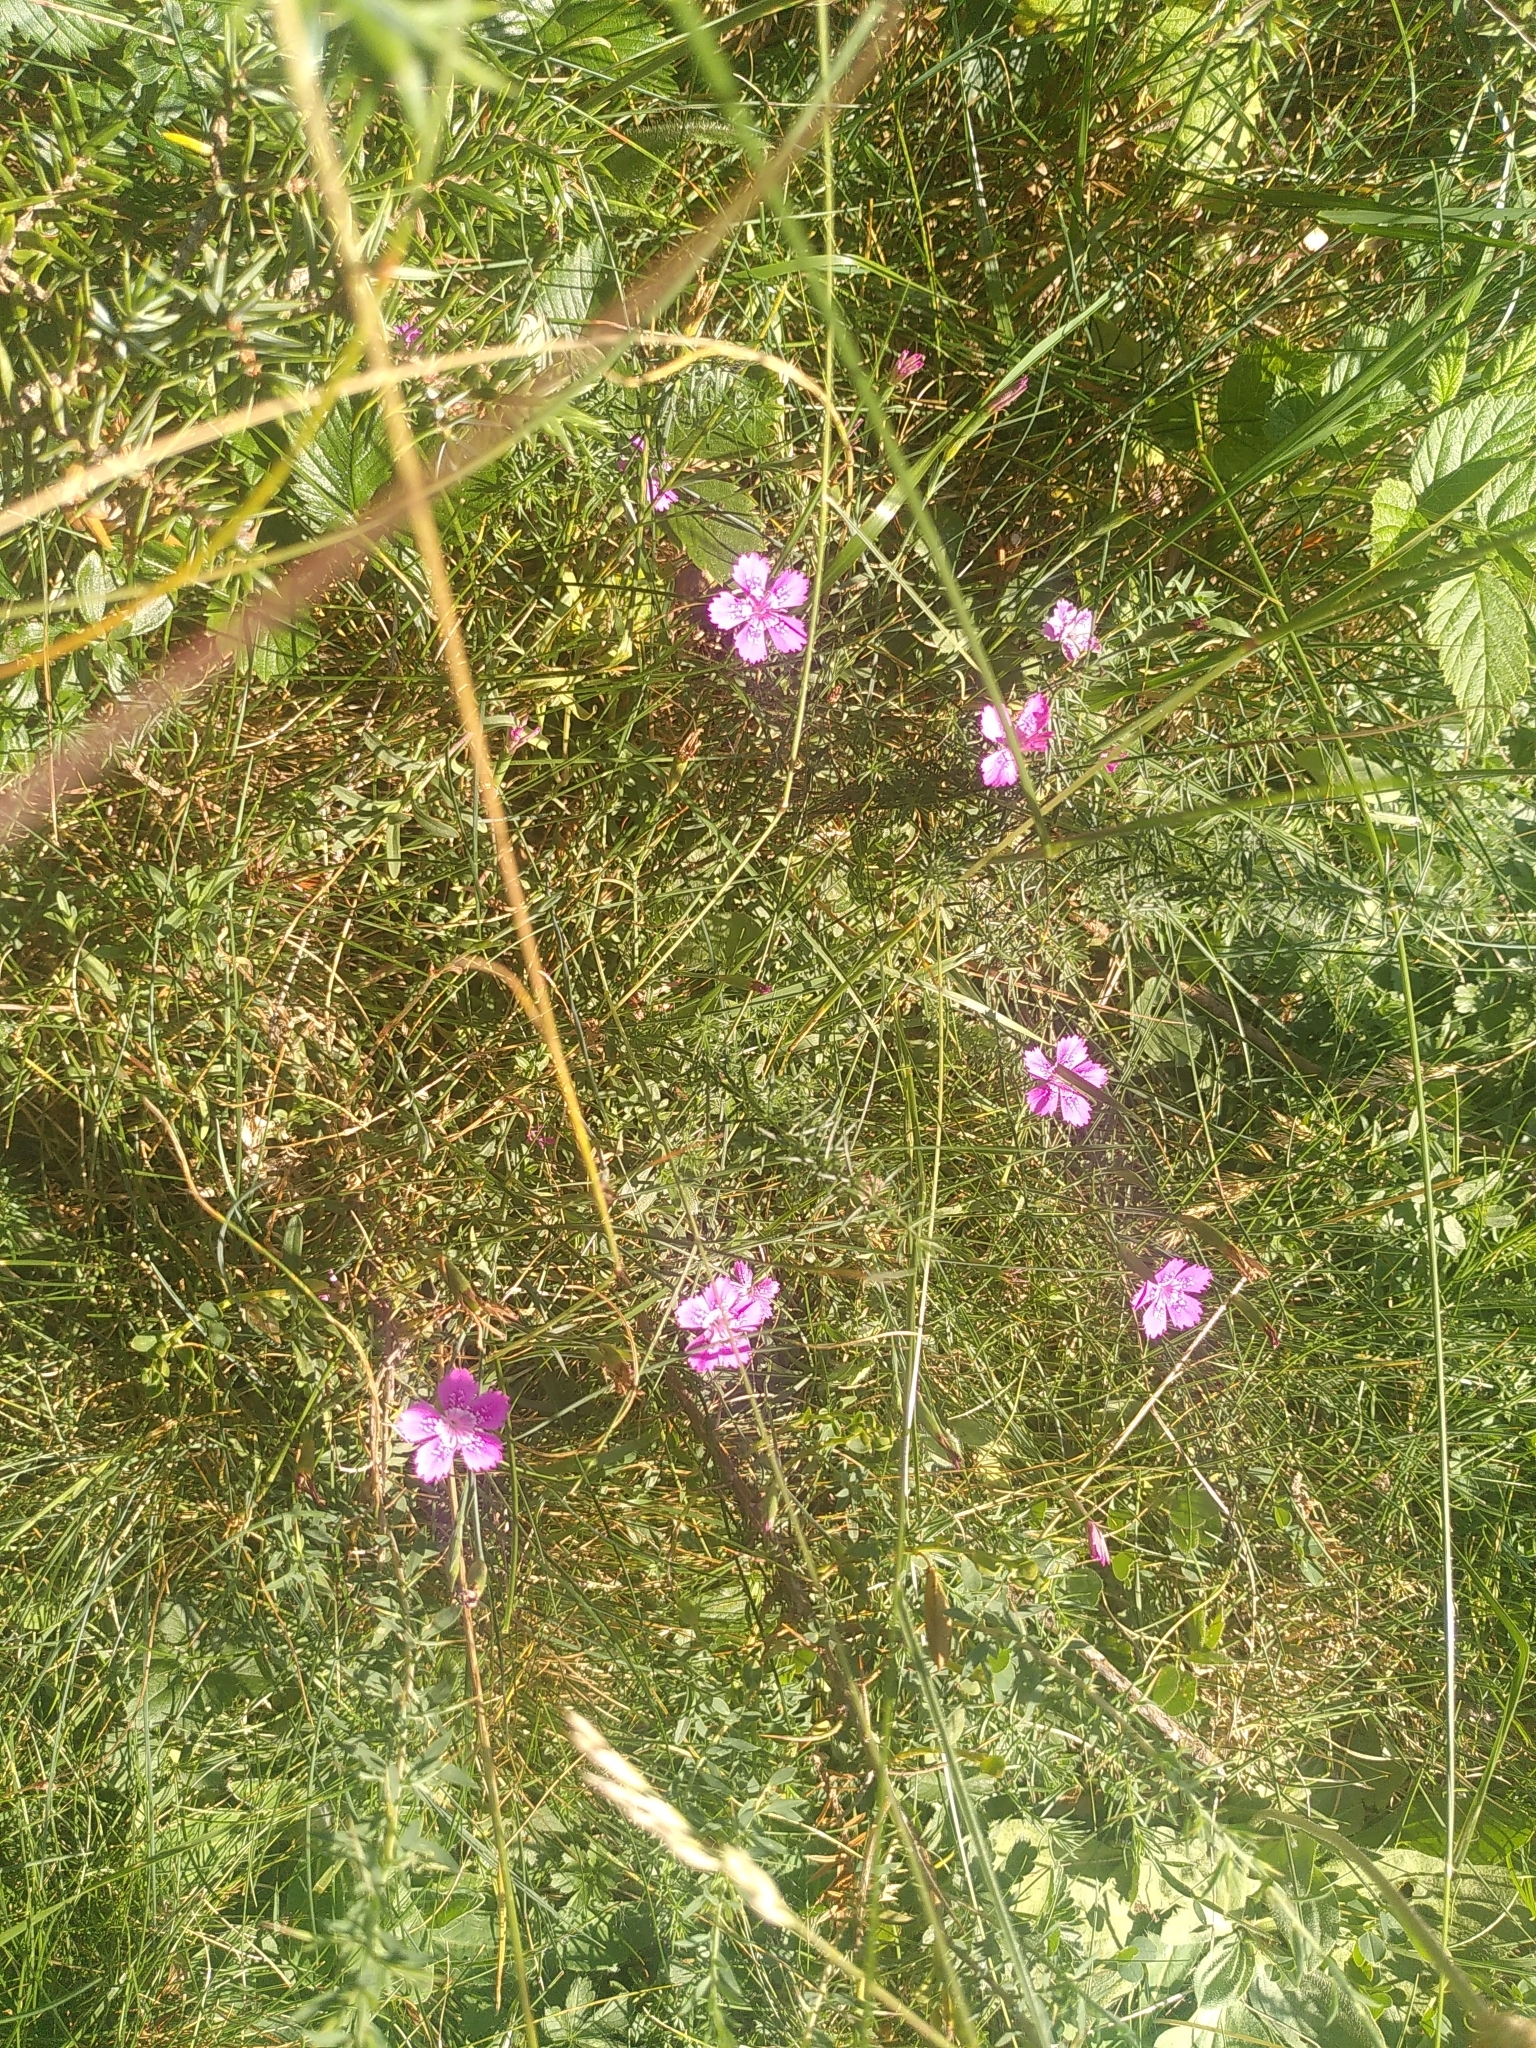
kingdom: Plantae
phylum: Tracheophyta
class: Magnoliopsida
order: Caryophyllales
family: Caryophyllaceae
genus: Dianthus
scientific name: Dianthus deltoides
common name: Maiden pink
